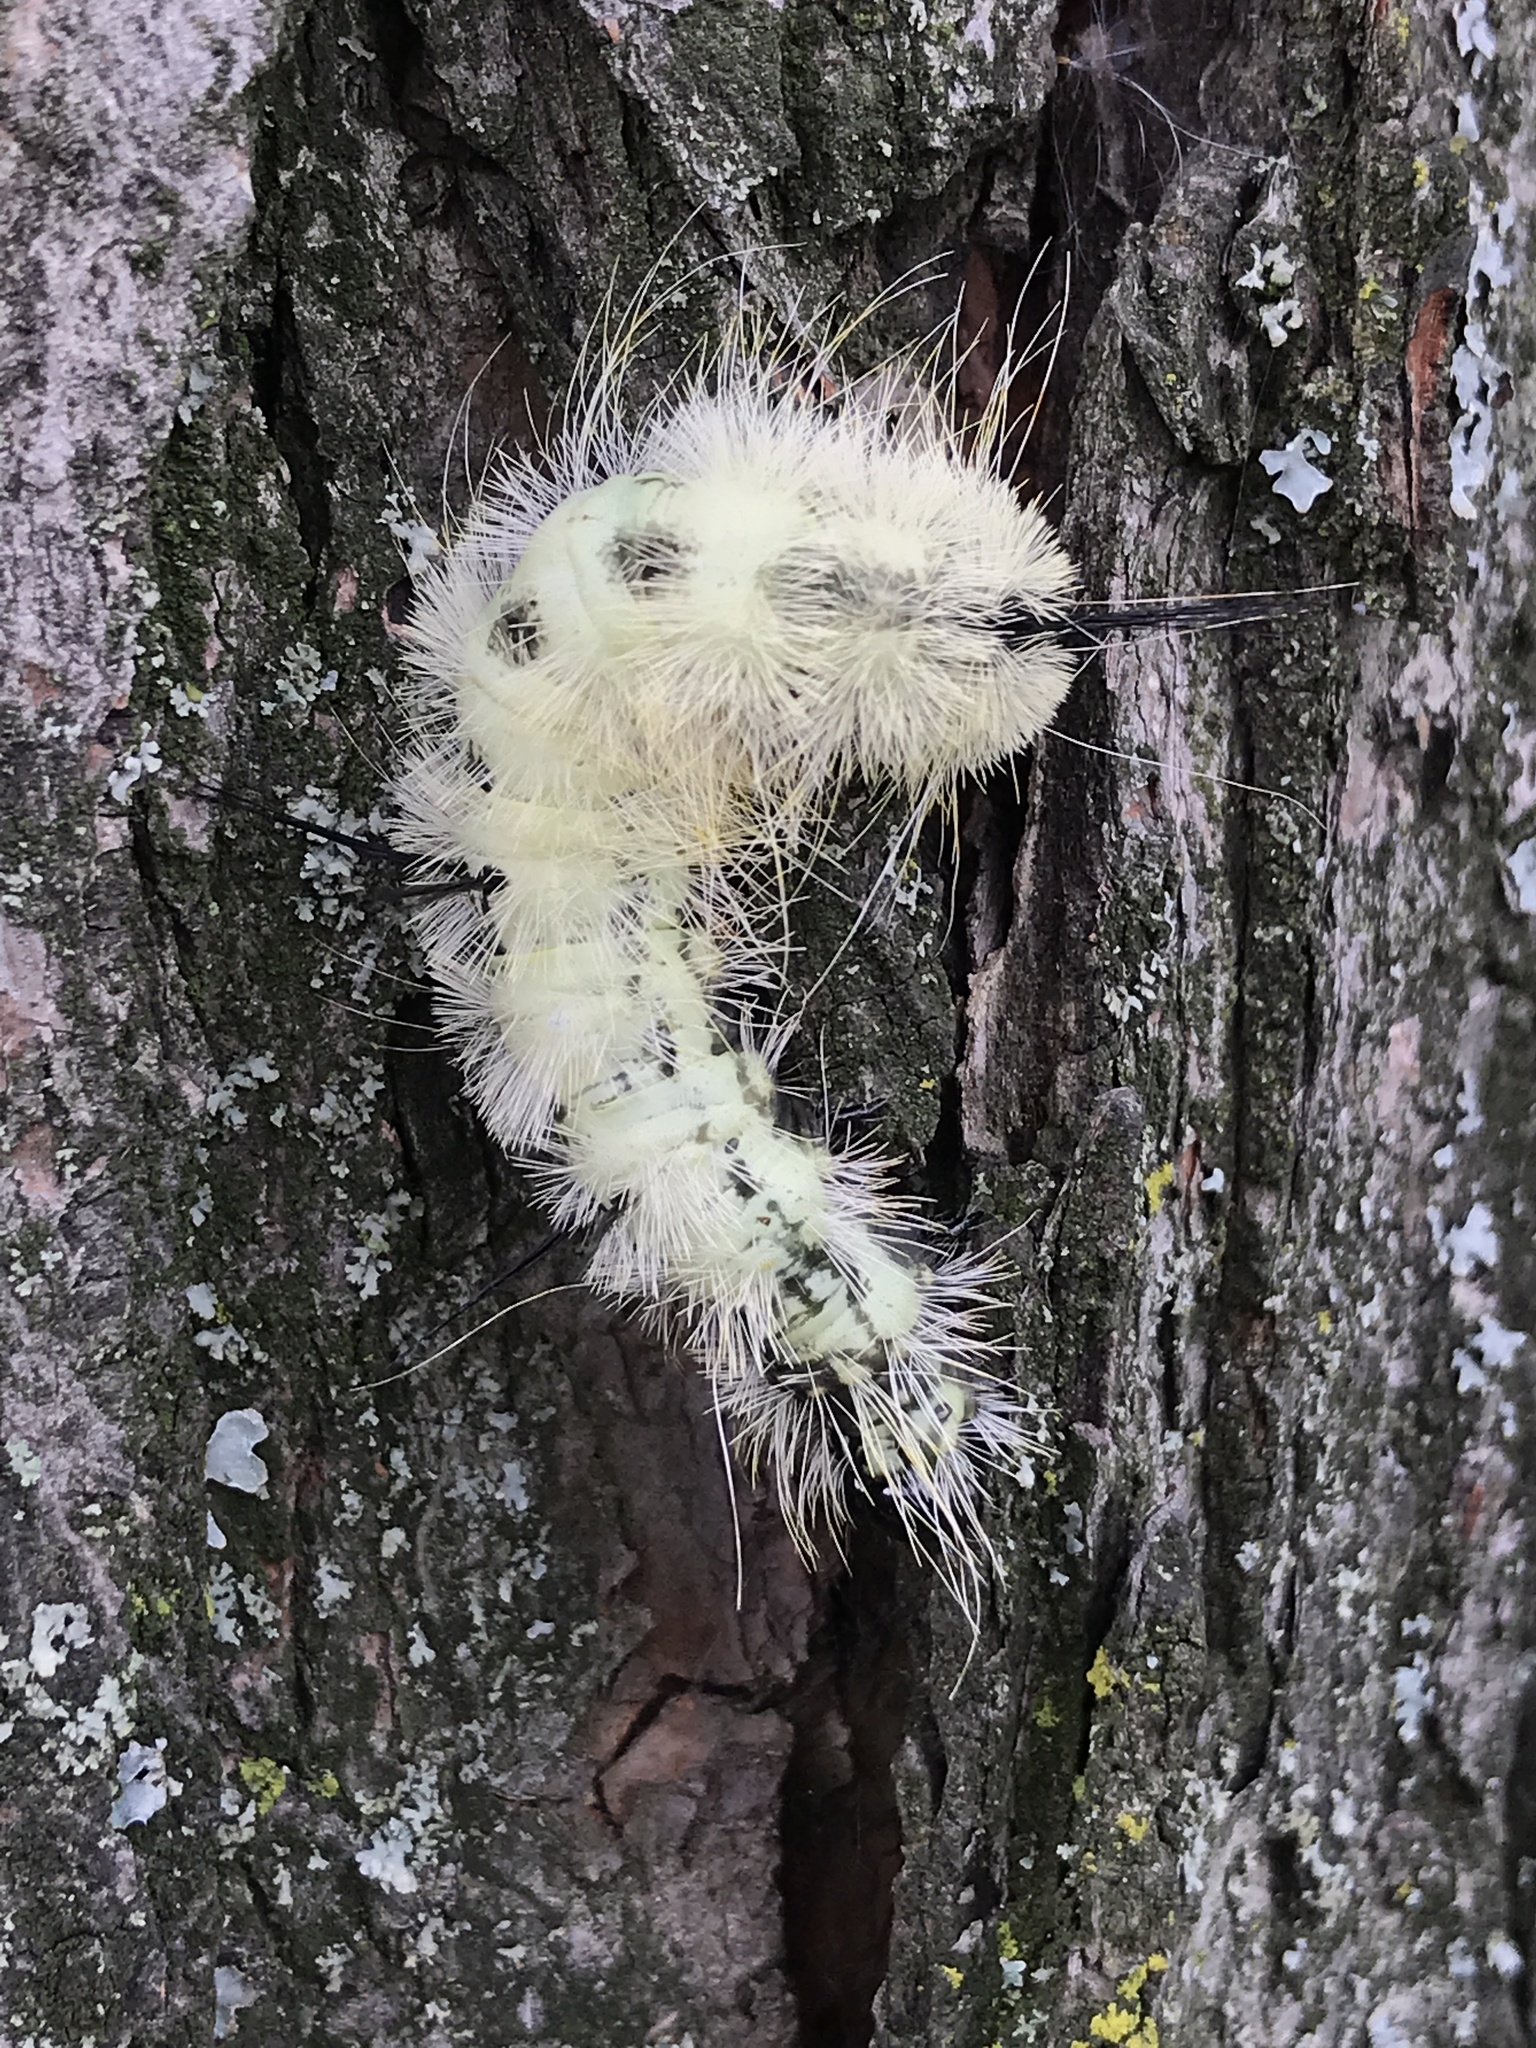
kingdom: Animalia
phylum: Arthropoda
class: Insecta
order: Lepidoptera
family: Noctuidae
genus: Acronicta
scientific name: Acronicta americana
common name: American dagger
